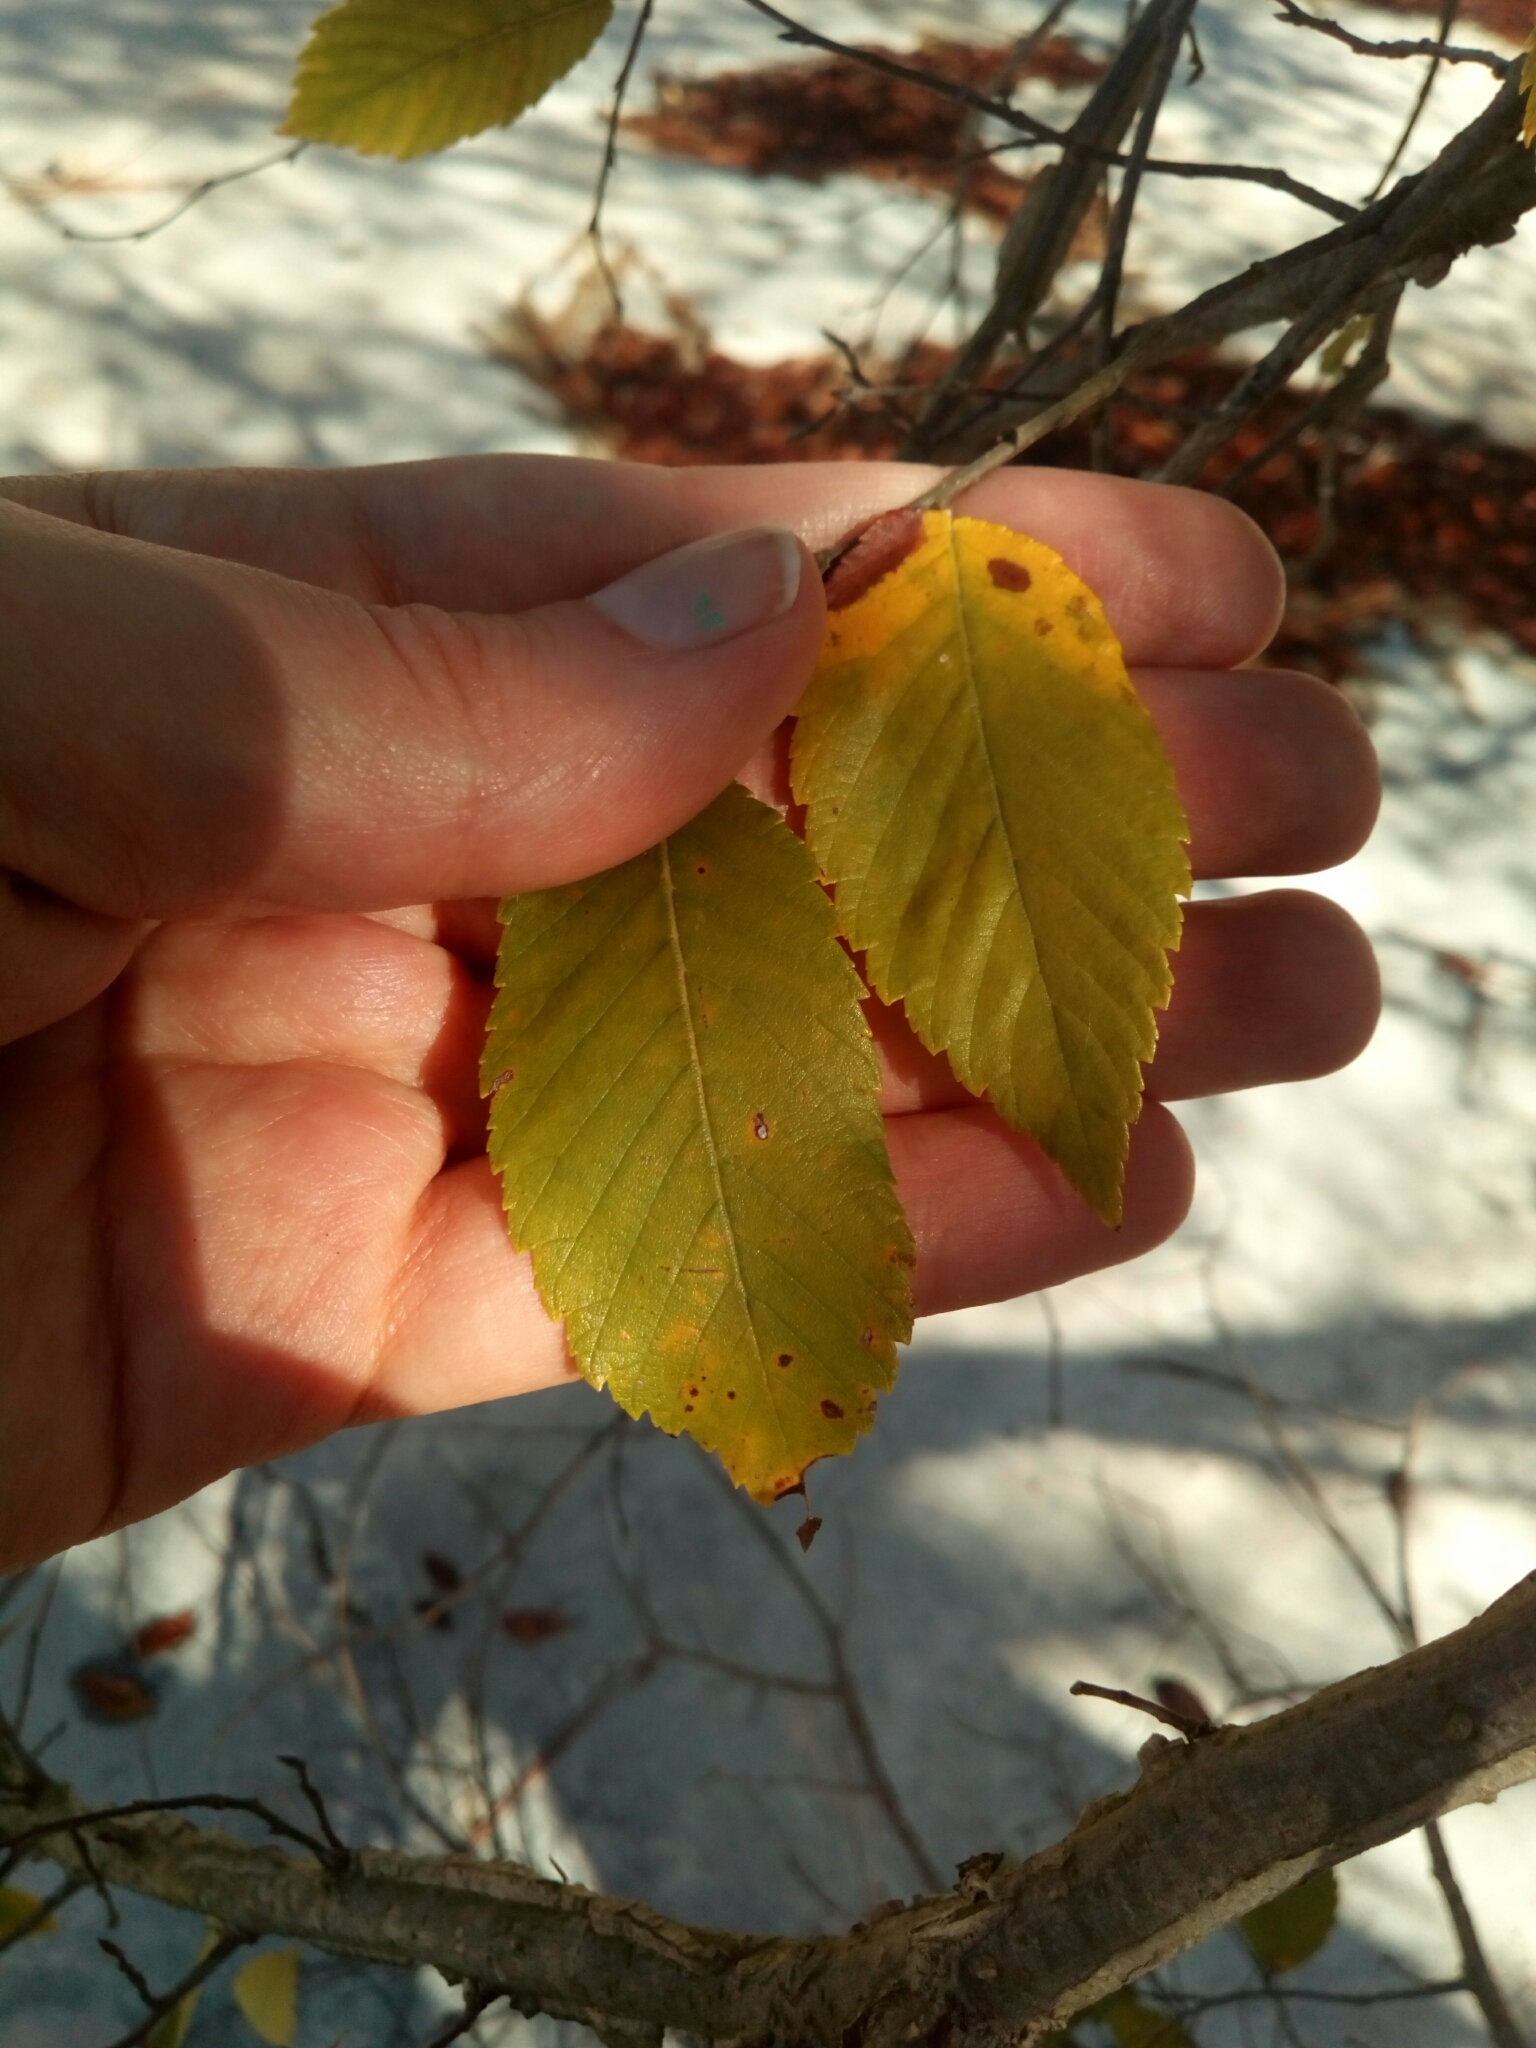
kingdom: Plantae
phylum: Tracheophyta
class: Magnoliopsida
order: Rosales
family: Ulmaceae
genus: Ulmus
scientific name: Ulmus alata
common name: Winged elm
